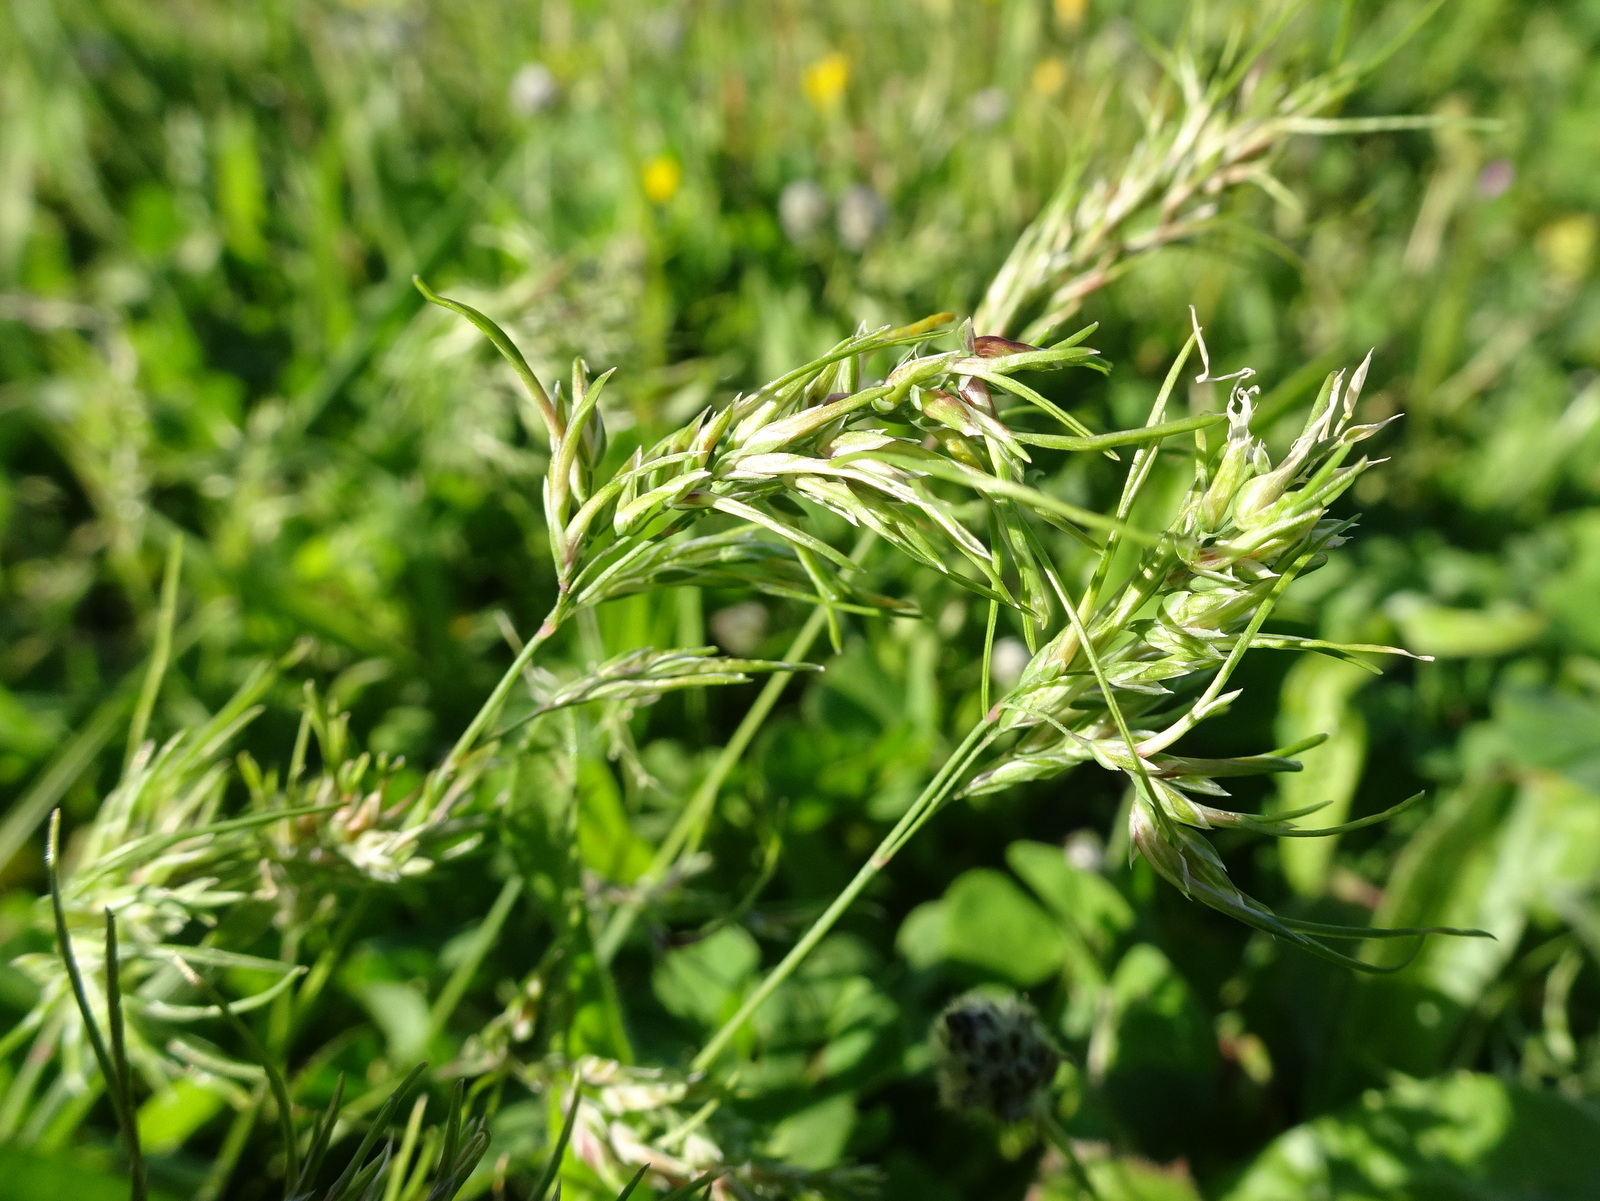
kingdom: Plantae
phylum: Tracheophyta
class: Liliopsida
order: Poales
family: Poaceae
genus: Poa
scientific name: Poa bulbosa
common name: Bulbous bluegrass
